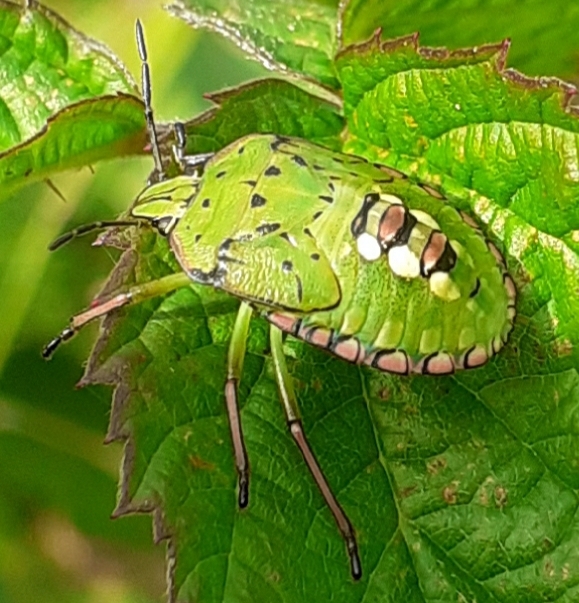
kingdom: Animalia
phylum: Arthropoda
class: Insecta
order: Hemiptera
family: Pentatomidae
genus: Nezara
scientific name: Nezara viridula
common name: Southern green stink bug
